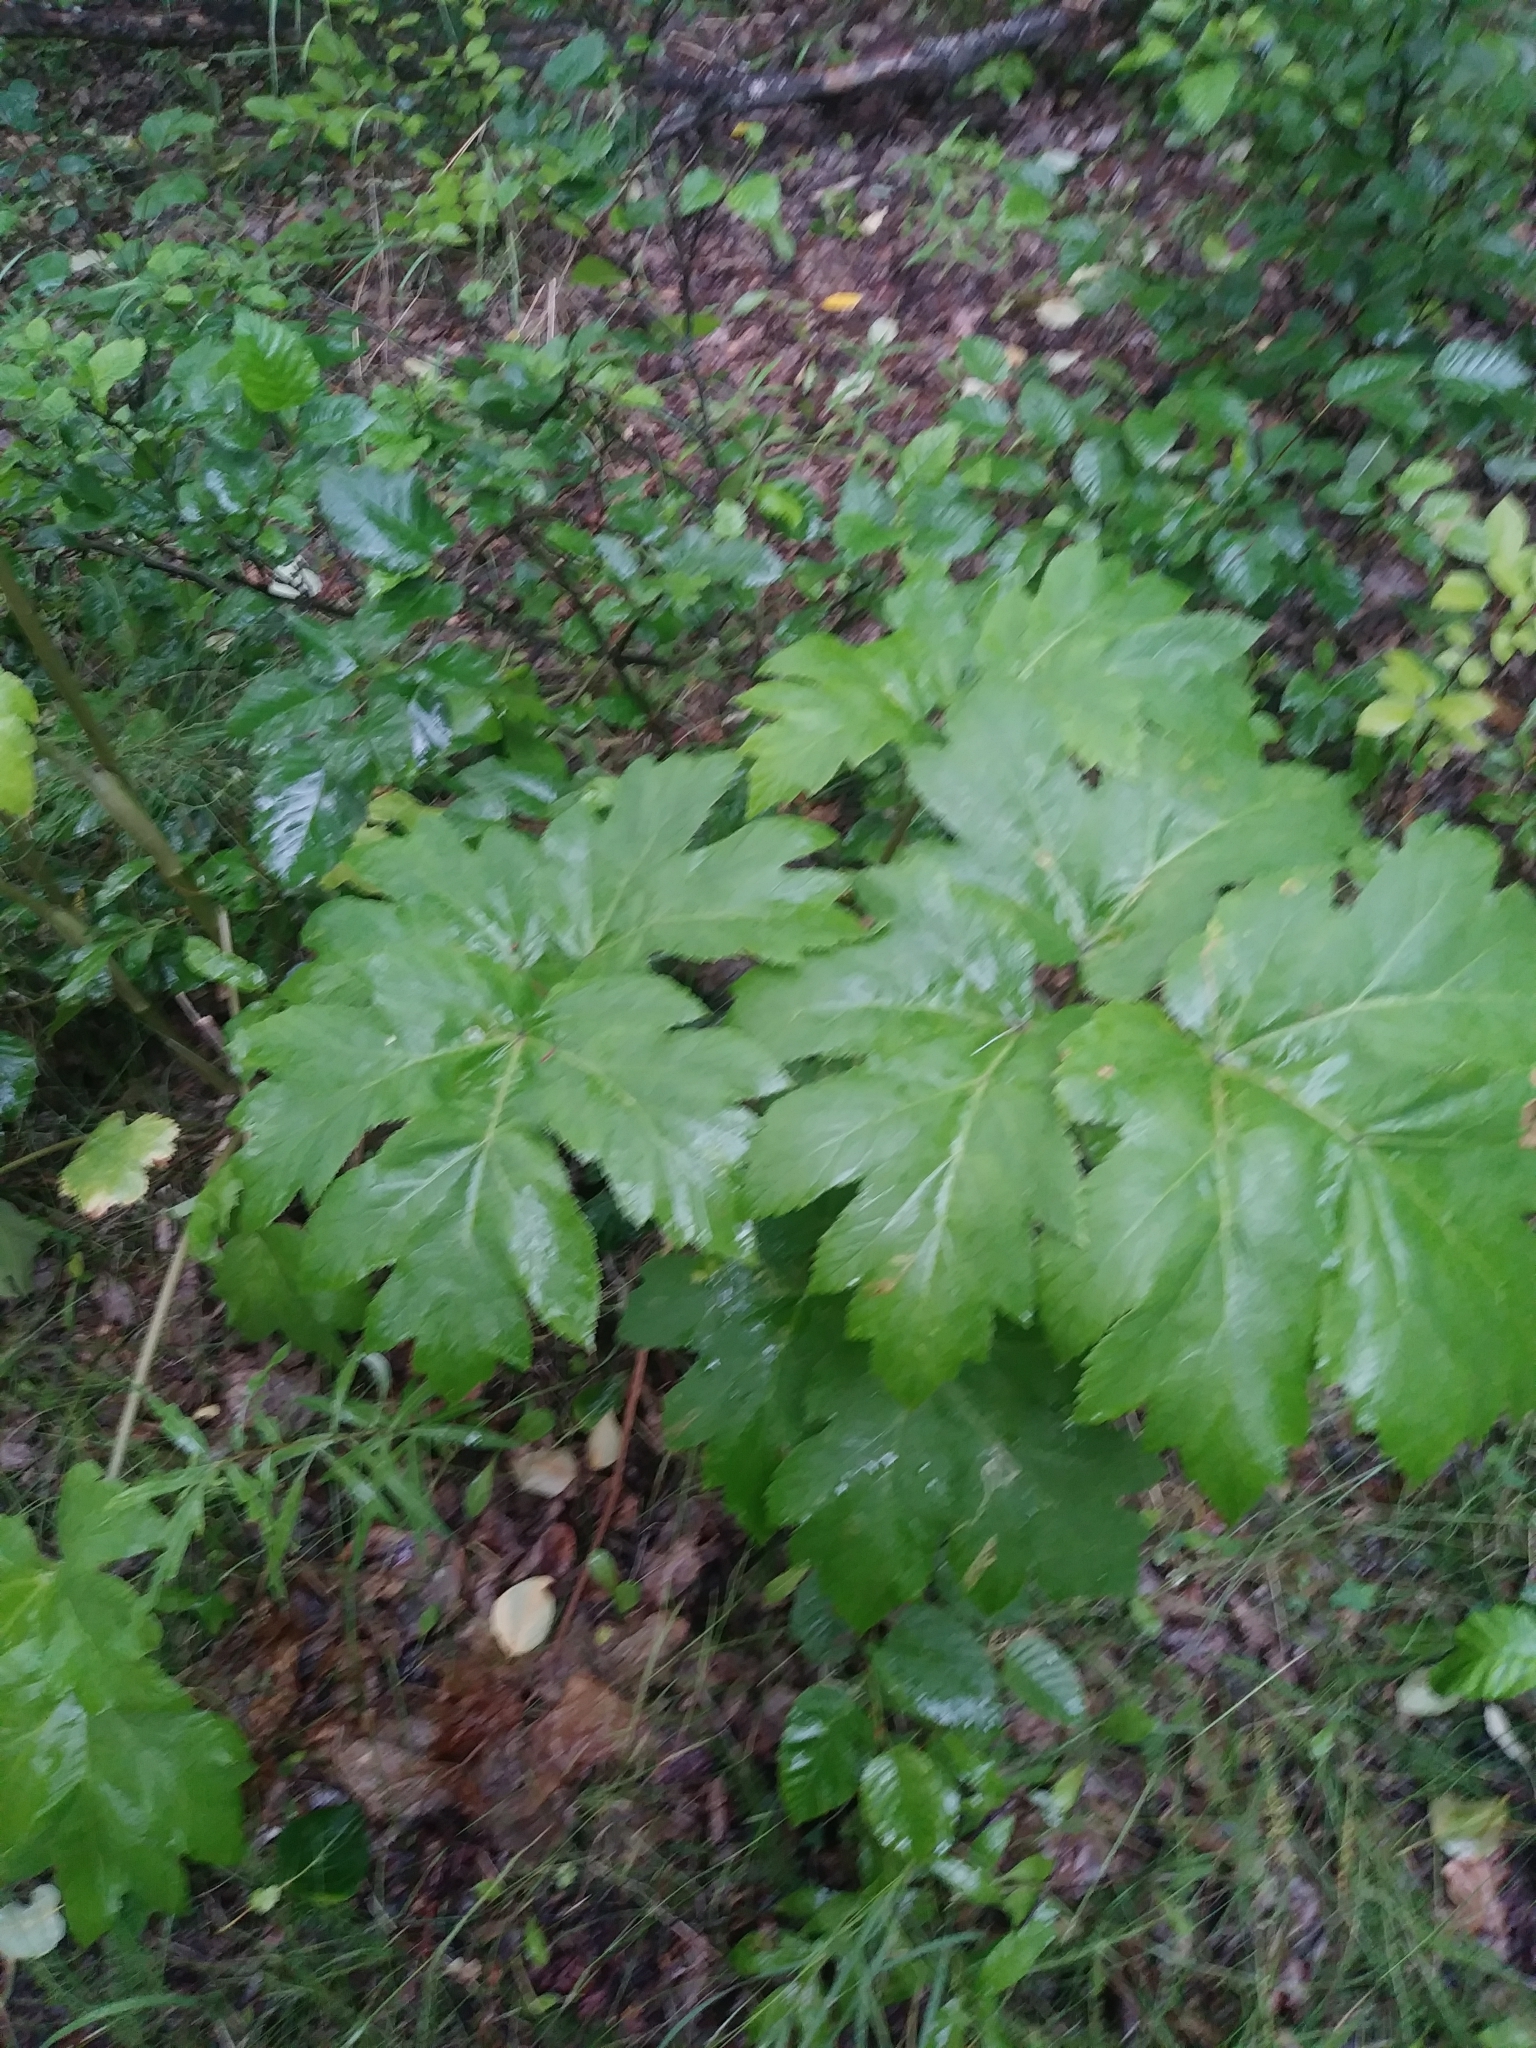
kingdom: Plantae
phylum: Tracheophyta
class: Magnoliopsida
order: Apiales
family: Apiaceae
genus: Heracleum
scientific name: Heracleum maximum
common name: American cow parsnip
